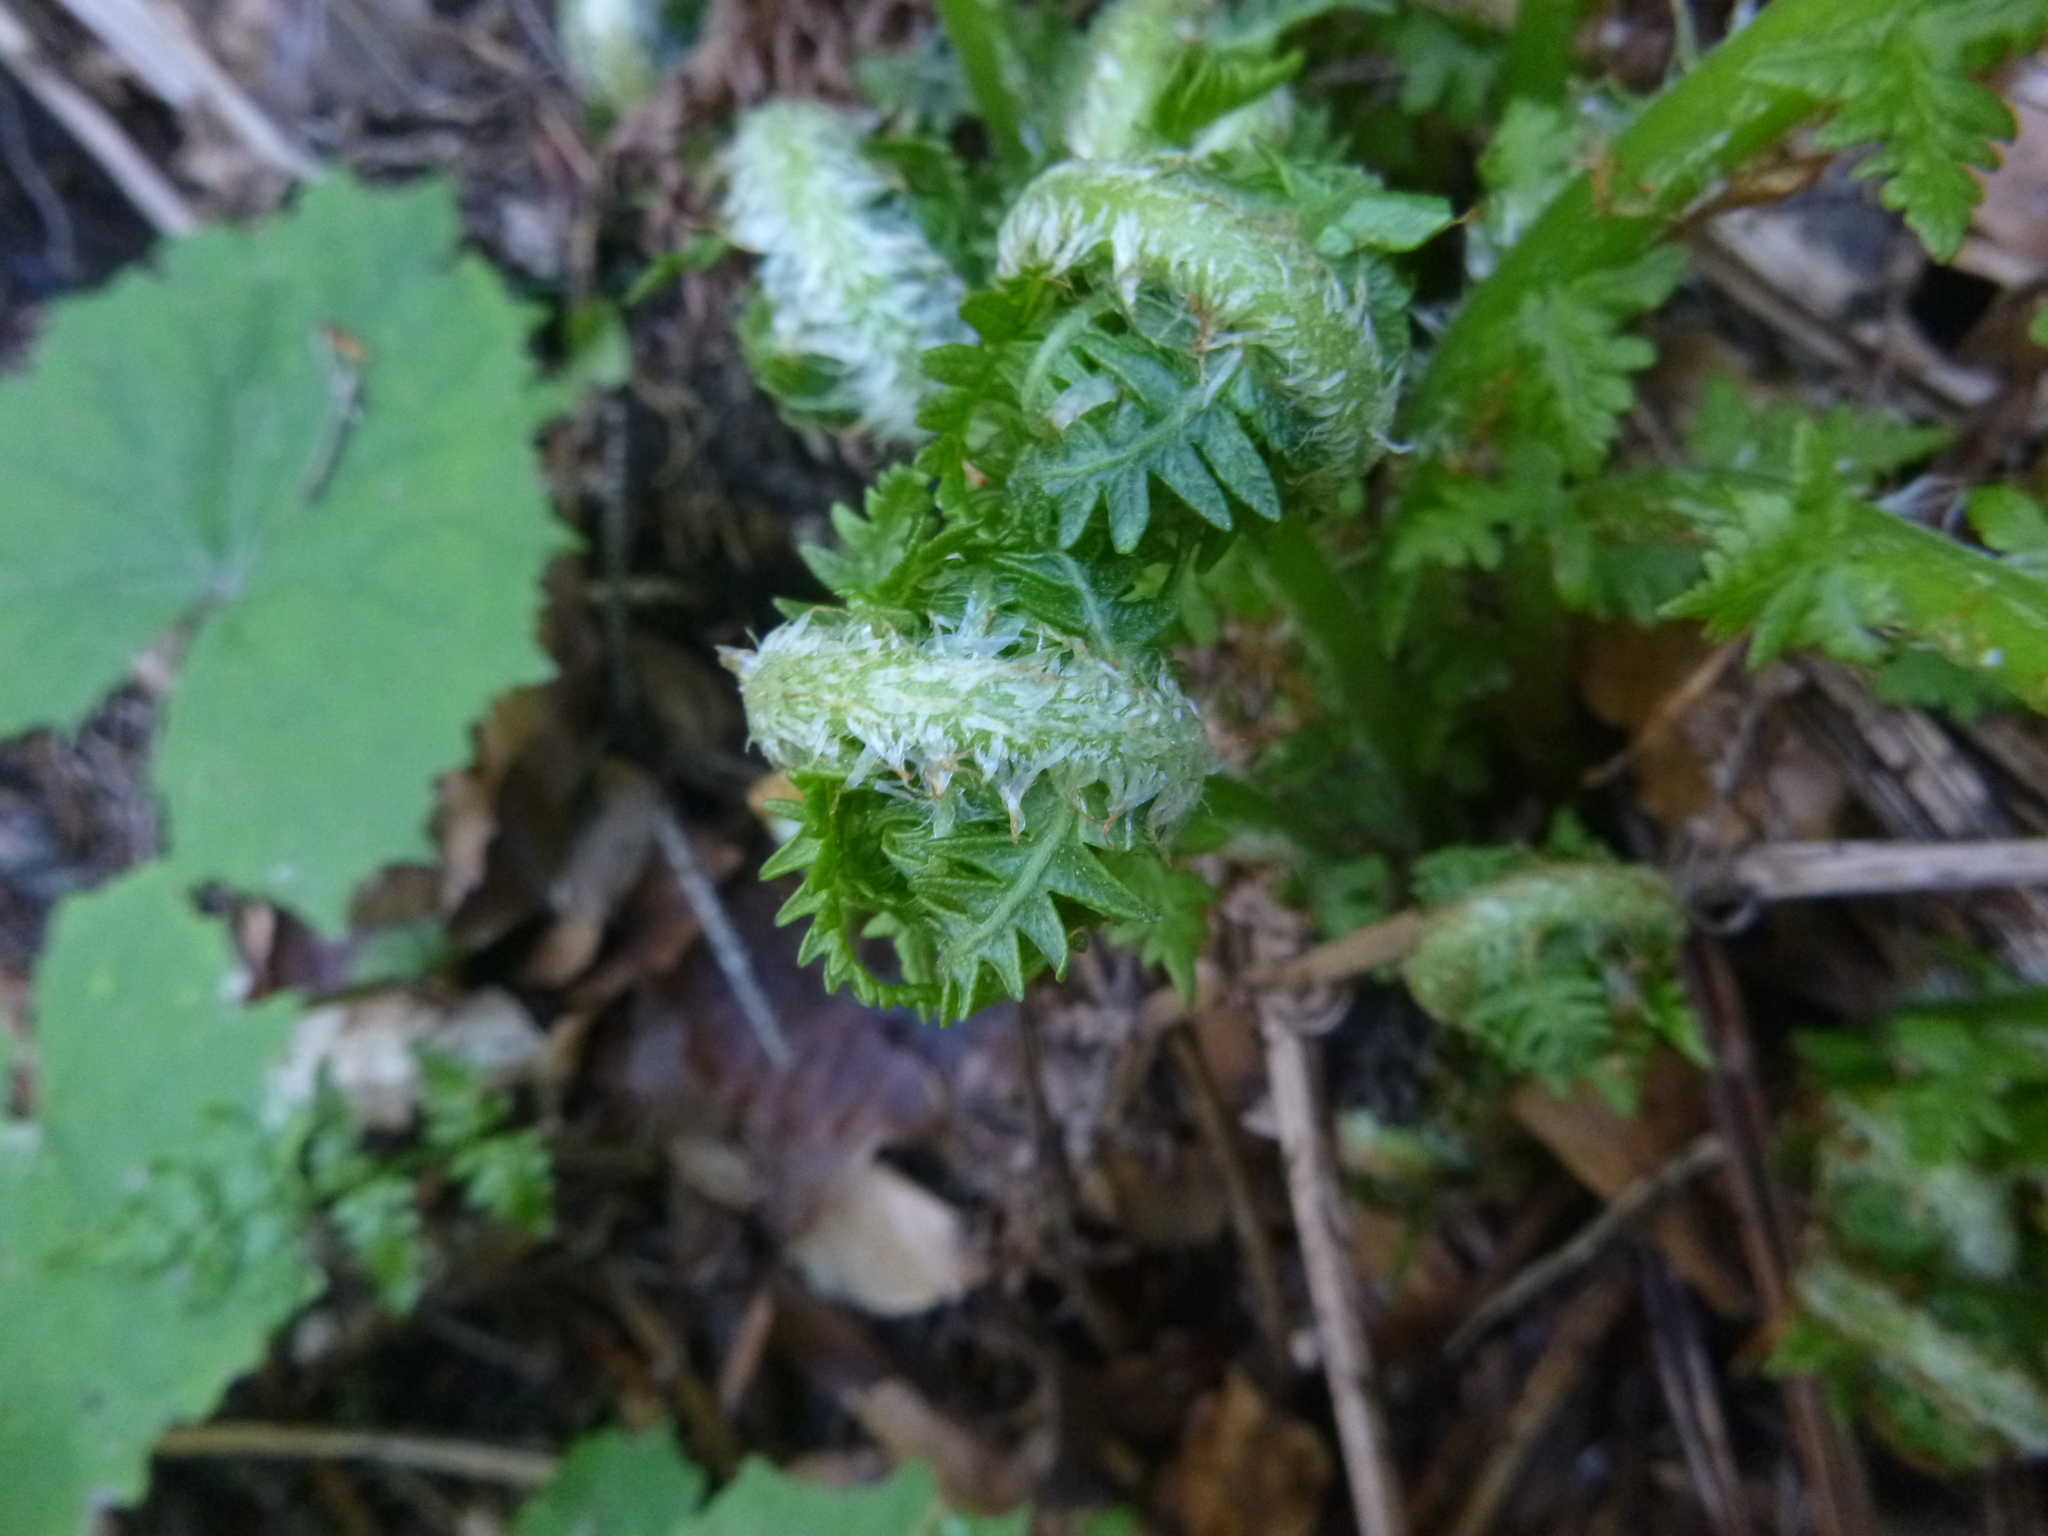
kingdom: Plantae
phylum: Tracheophyta
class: Polypodiopsida
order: Polypodiales
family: Thelypteridaceae
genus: Oreopteris
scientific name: Oreopteris limbosperma
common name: Lemon-scented fern
